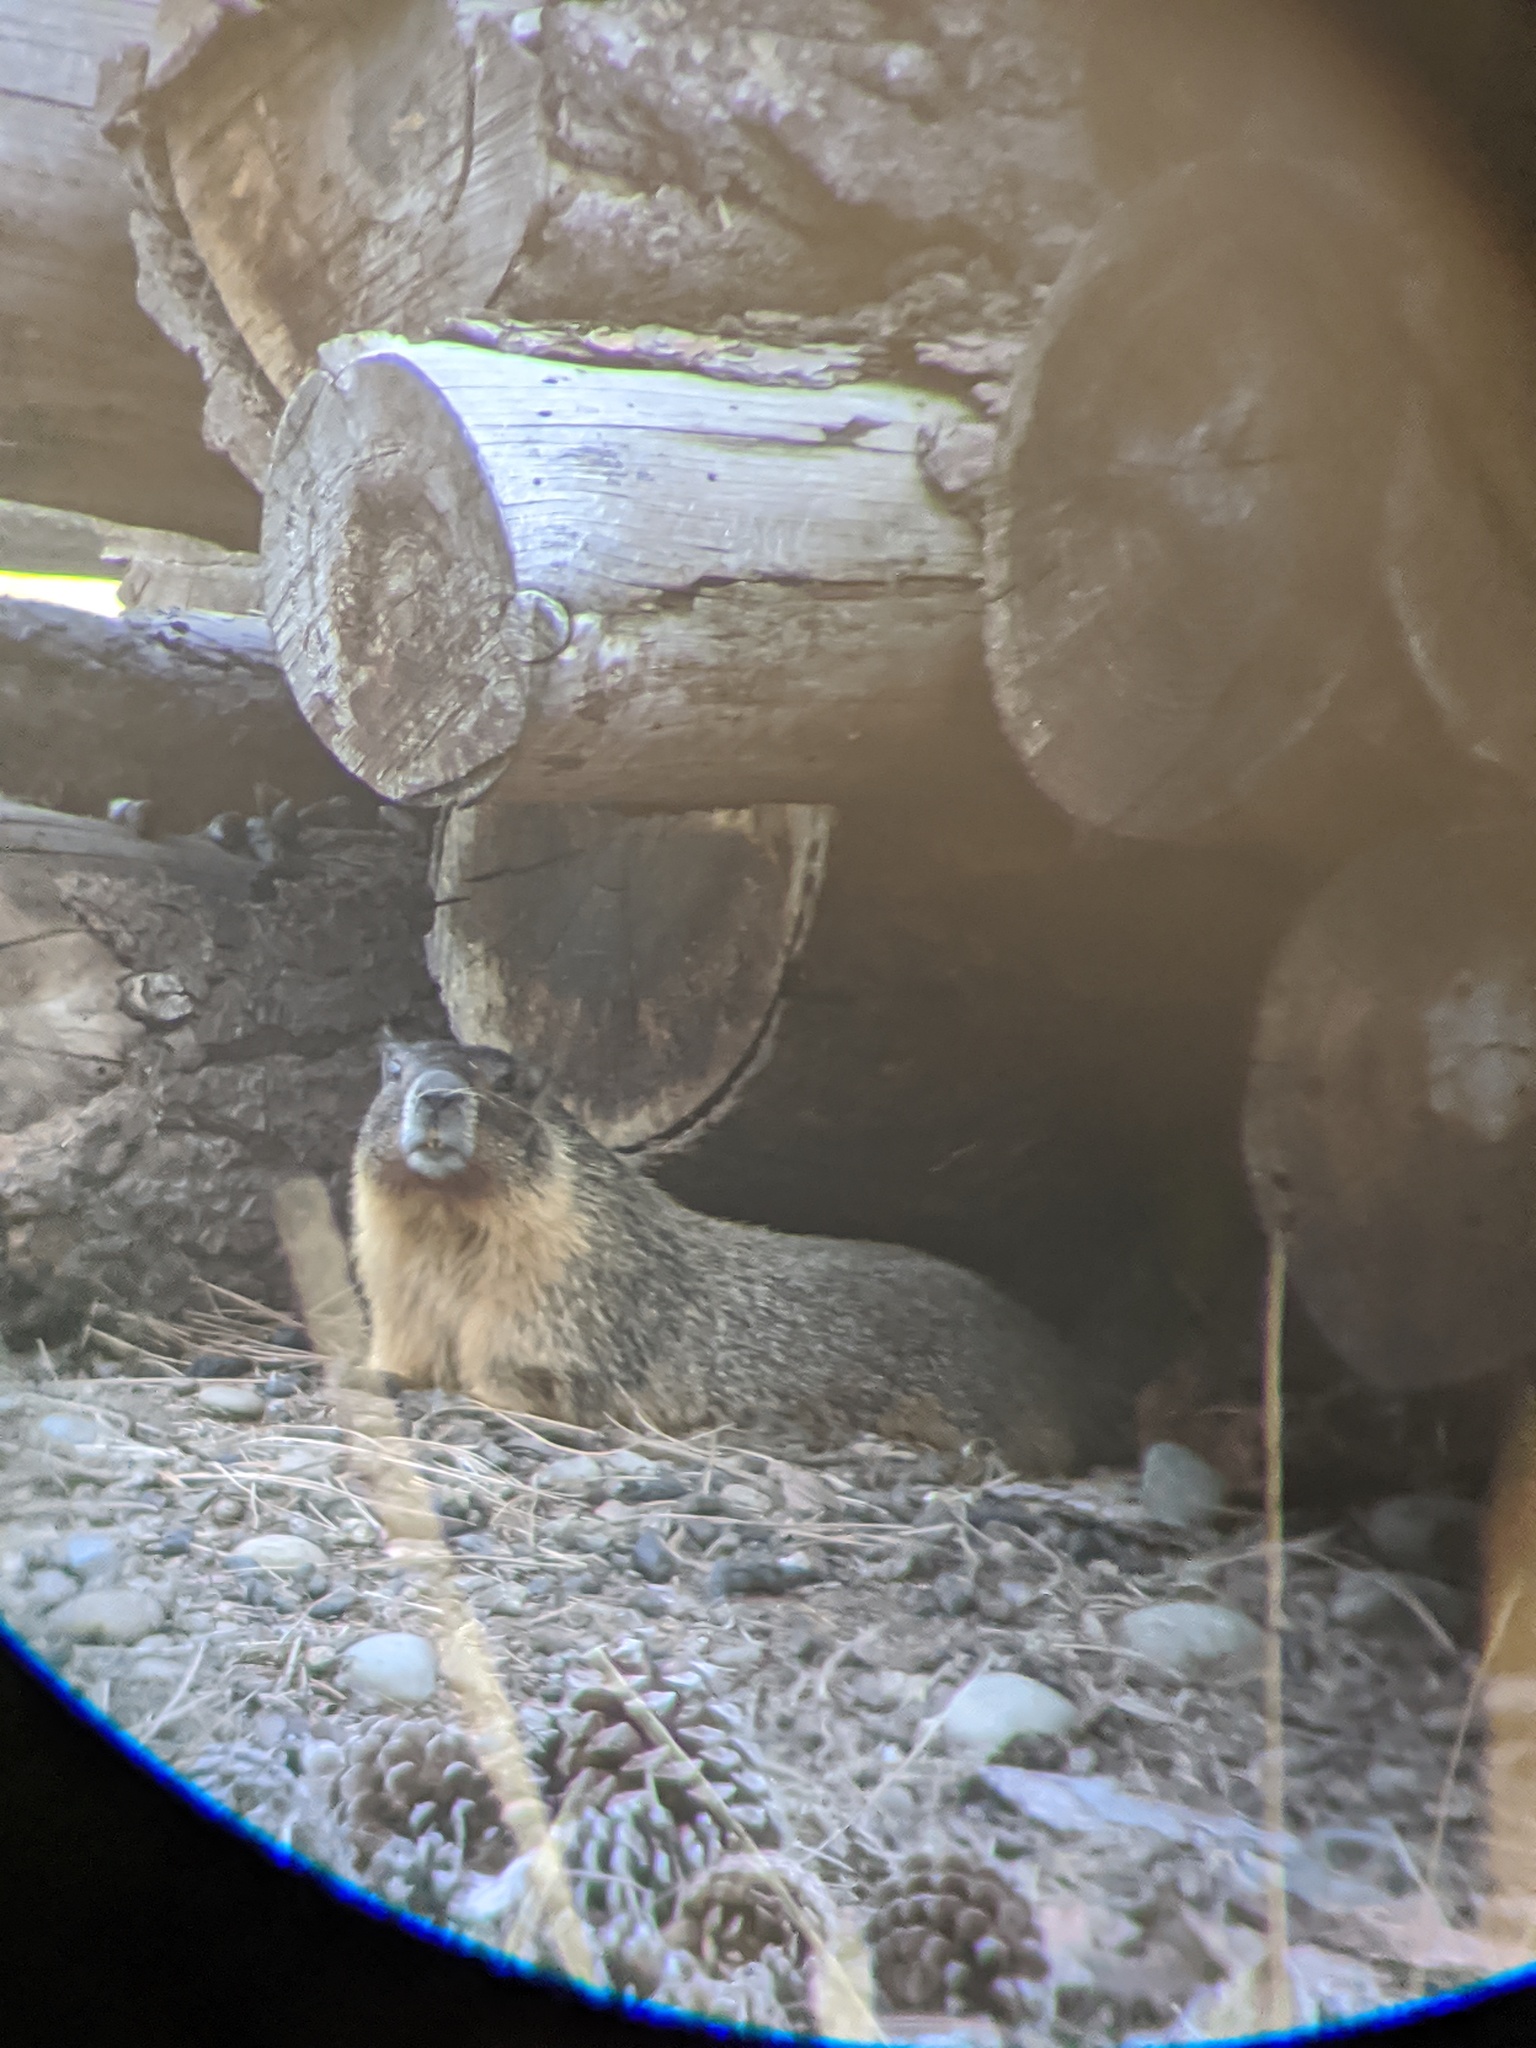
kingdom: Animalia
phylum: Chordata
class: Mammalia
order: Rodentia
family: Sciuridae
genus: Marmota
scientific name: Marmota flaviventris
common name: Yellow-bellied marmot
